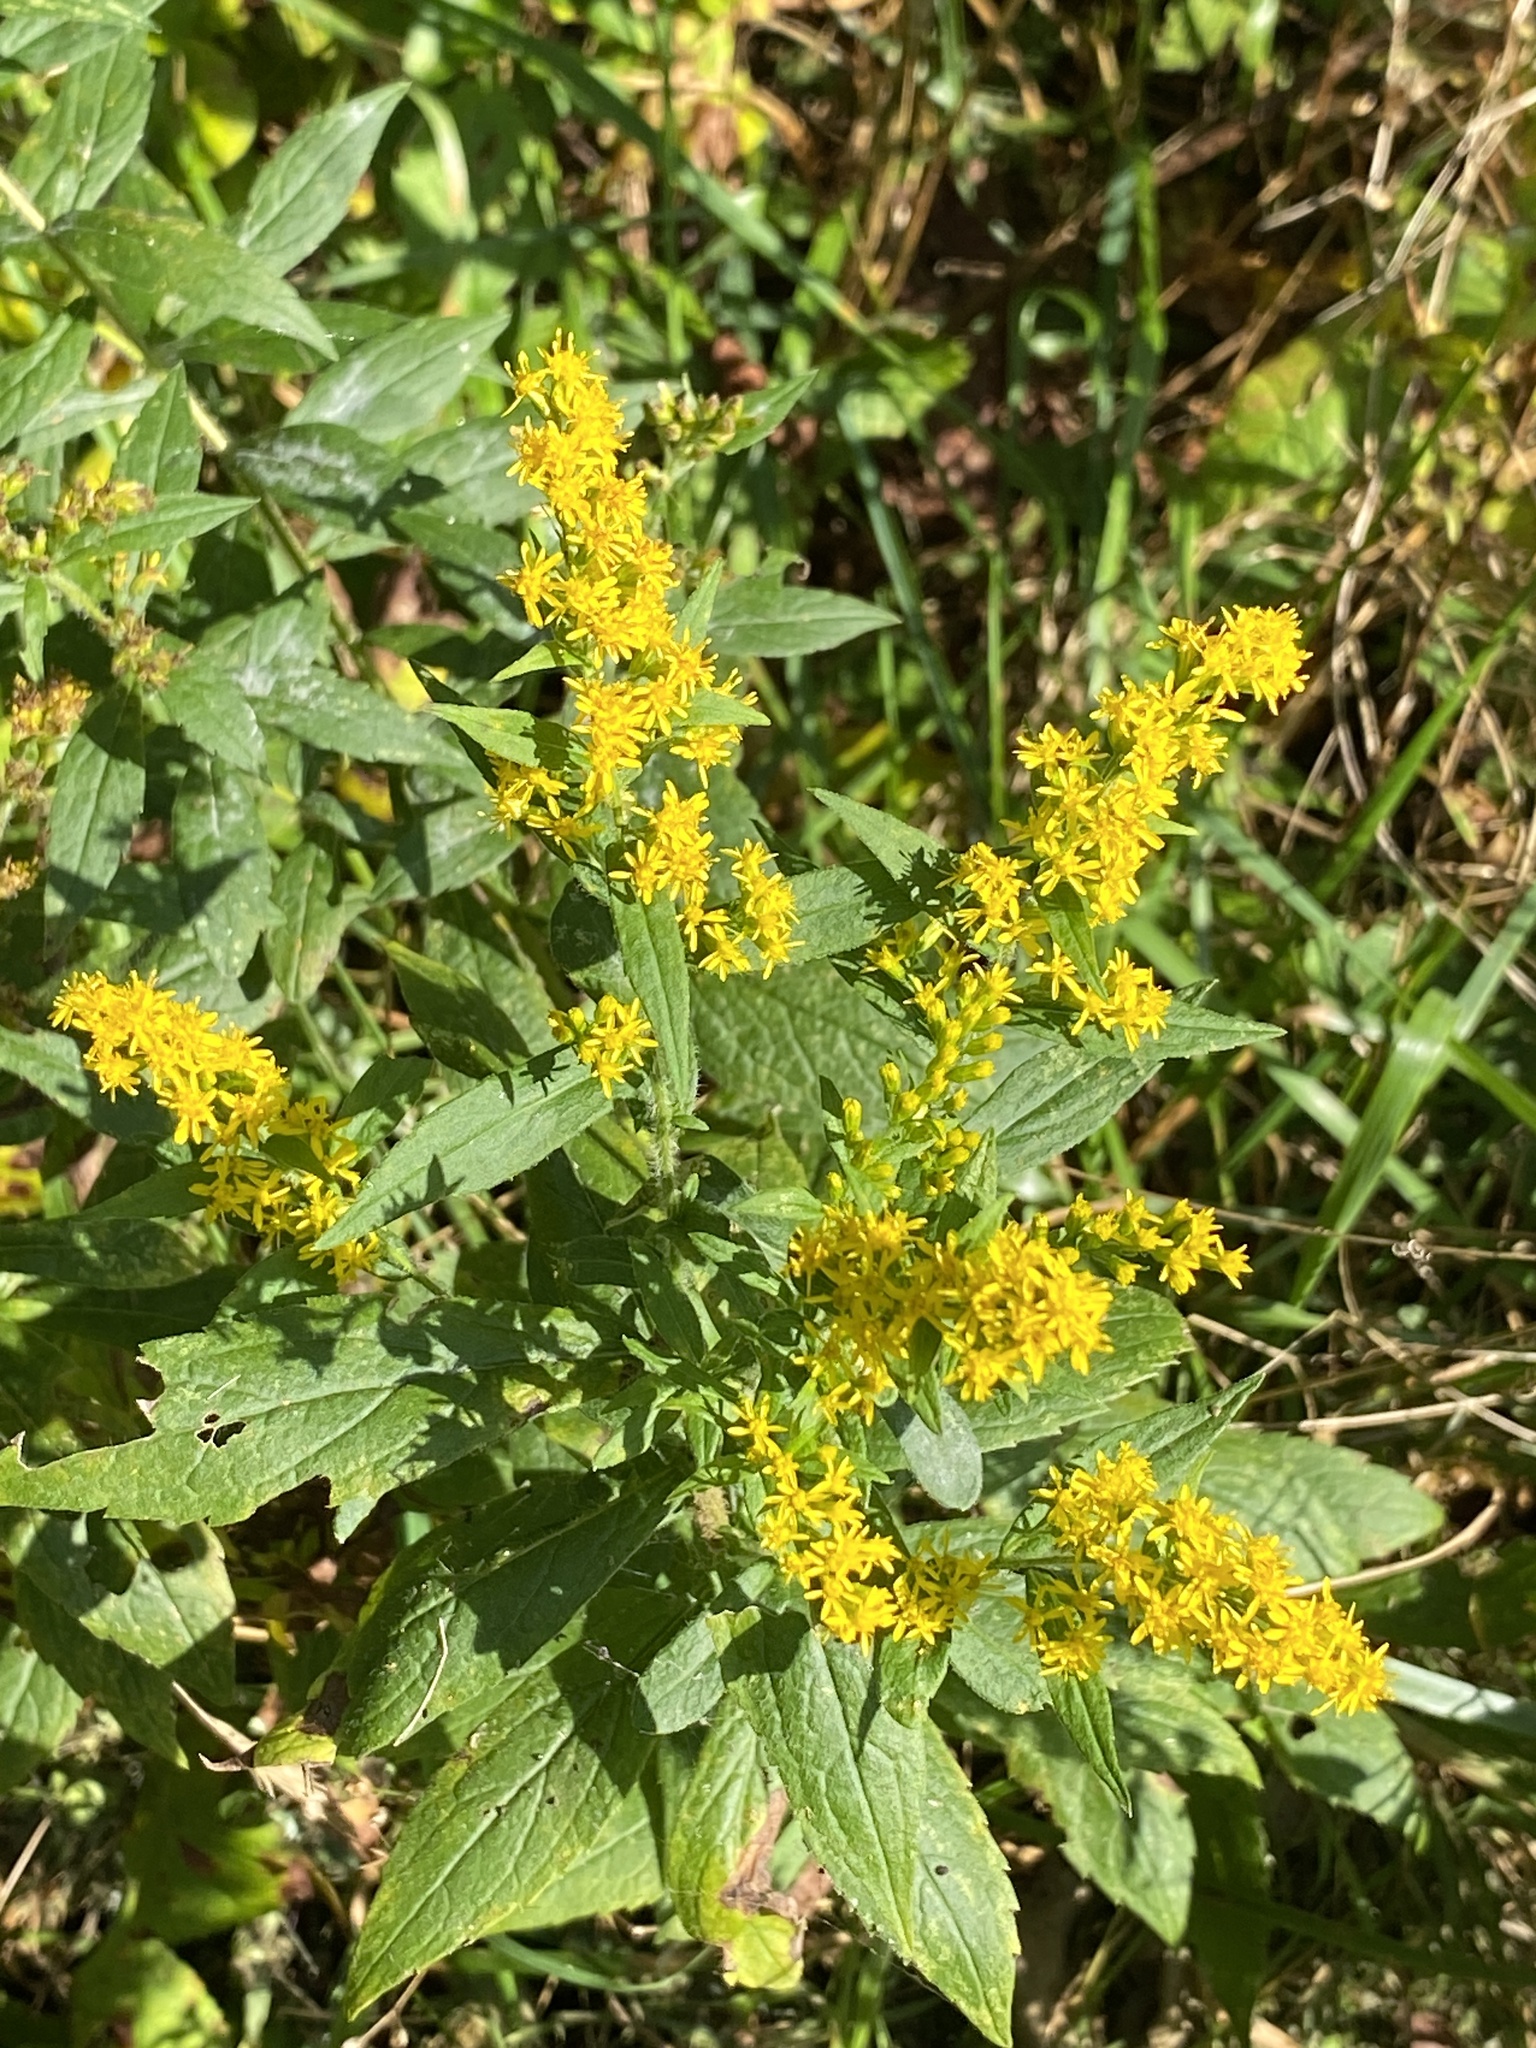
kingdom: Plantae
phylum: Tracheophyta
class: Magnoliopsida
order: Asterales
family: Asteraceae
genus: Solidago
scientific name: Solidago rugosa
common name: Rough-stemmed goldenrod
